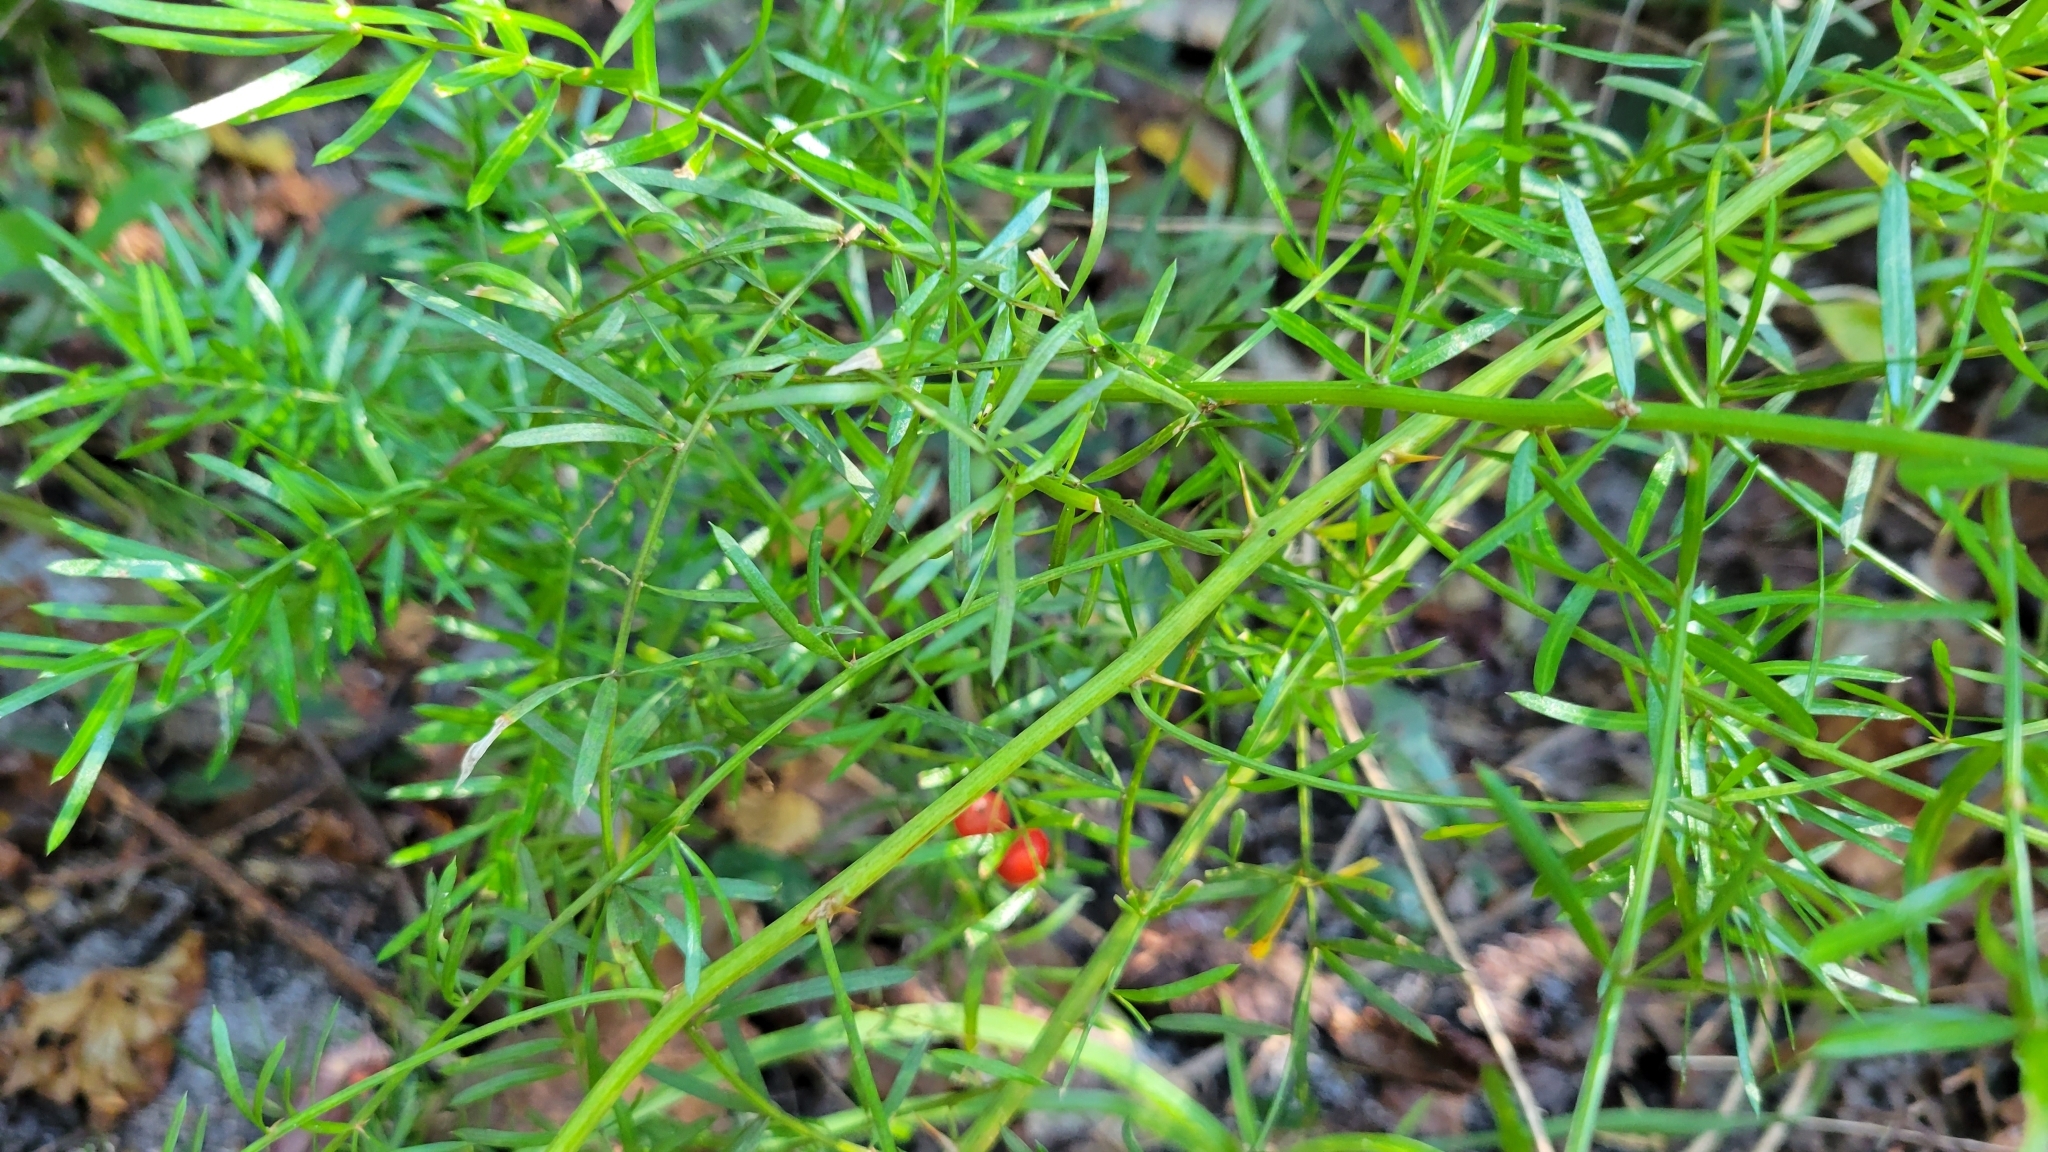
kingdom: Plantae
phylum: Tracheophyta
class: Liliopsida
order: Asparagales
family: Asparagaceae
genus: Asparagus
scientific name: Asparagus aethiopicus
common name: Sprenger's asparagus fern
